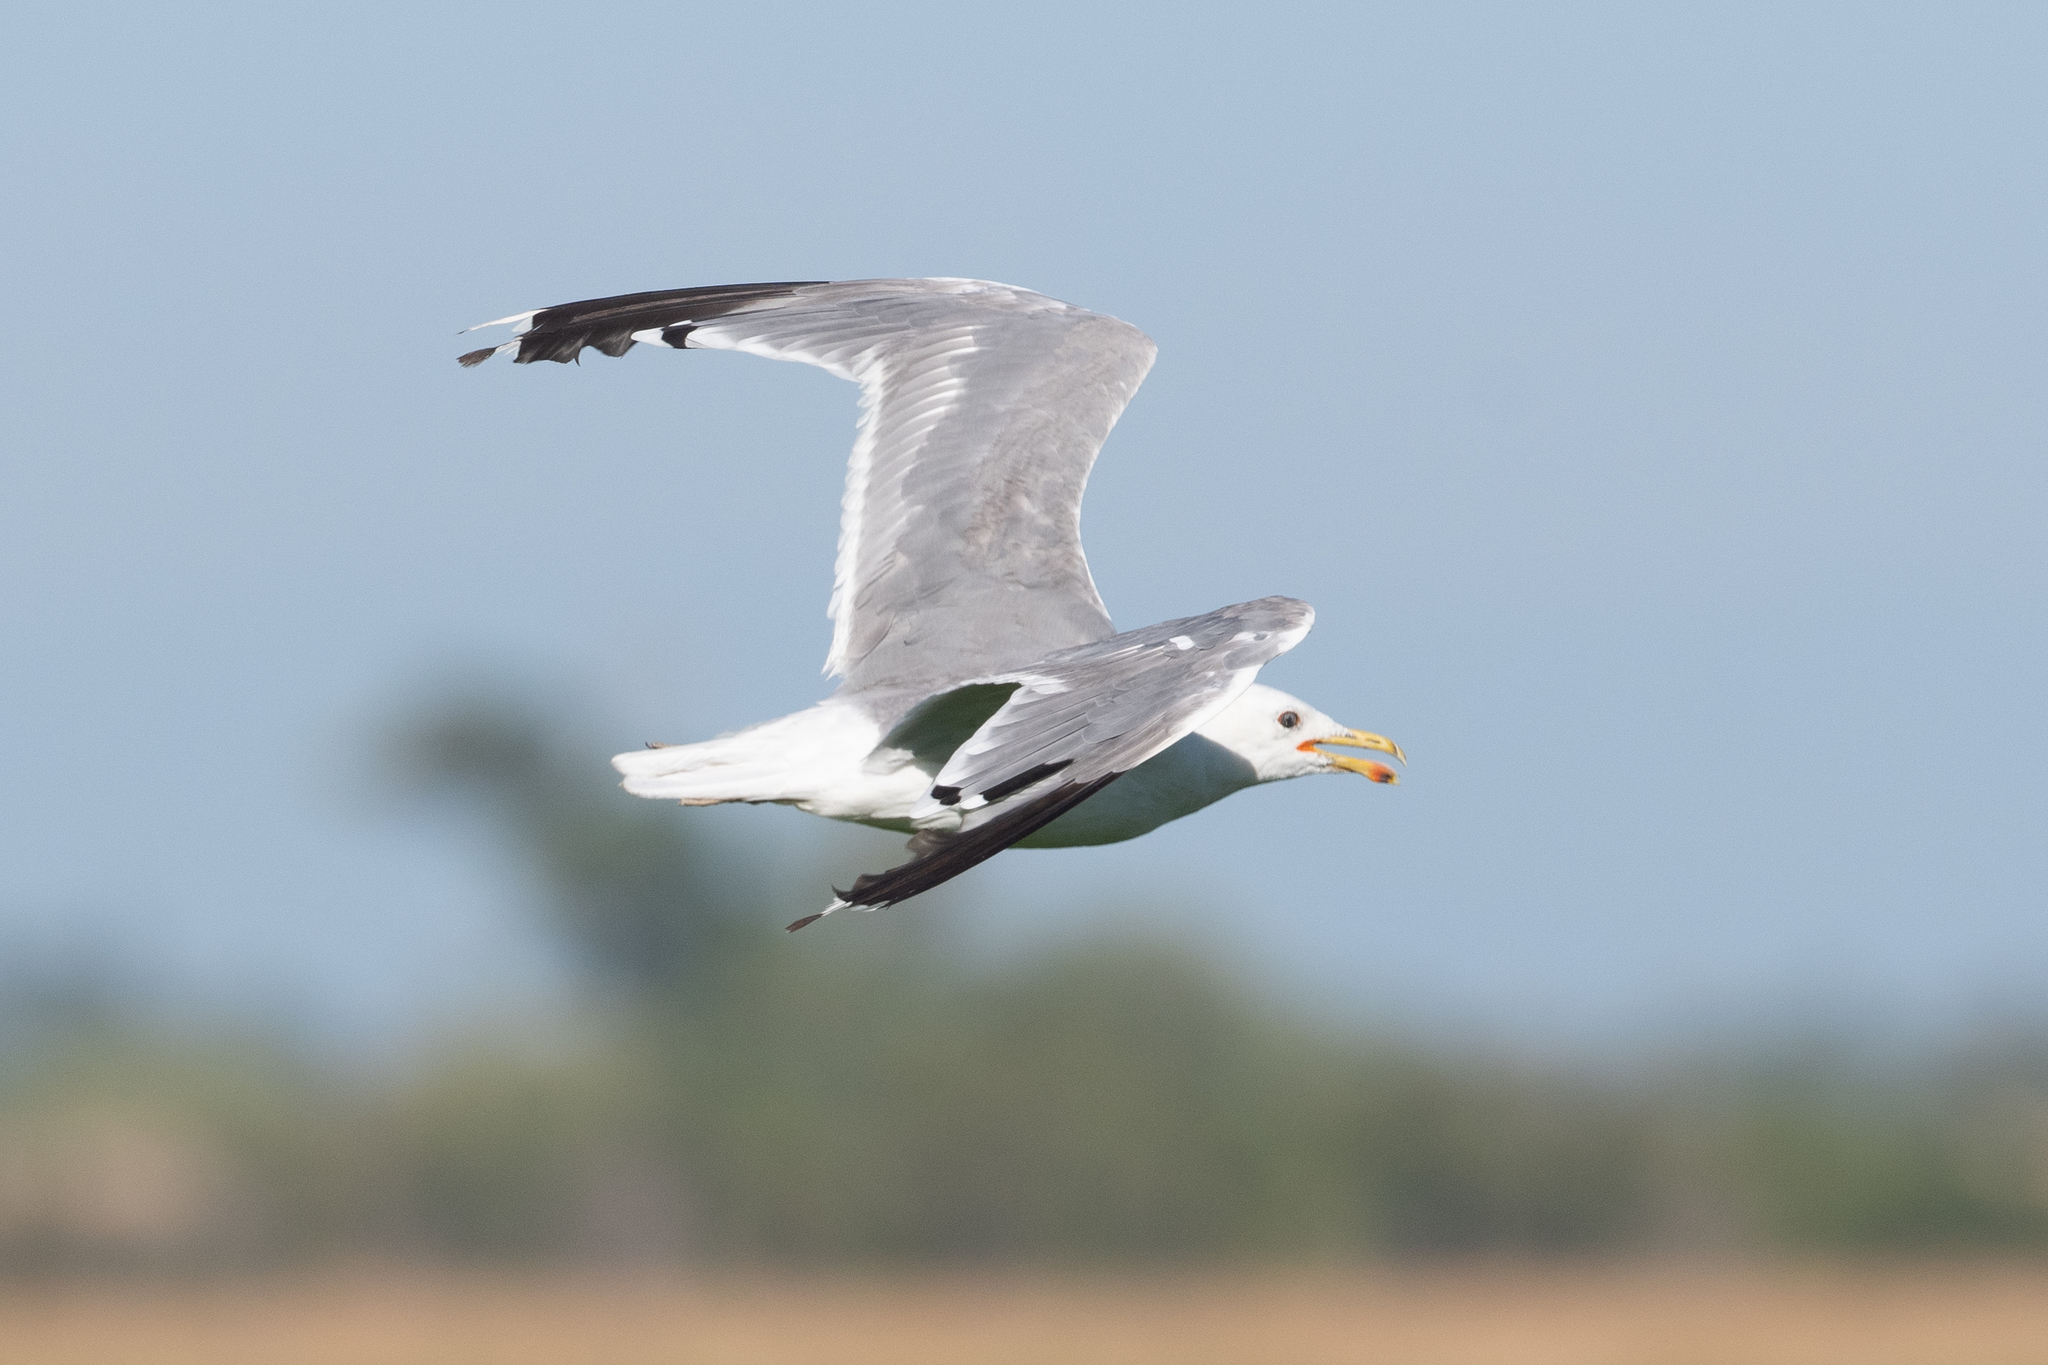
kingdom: Animalia
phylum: Chordata
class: Aves
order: Charadriiformes
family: Laridae
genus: Larus
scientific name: Larus californicus
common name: California gull
